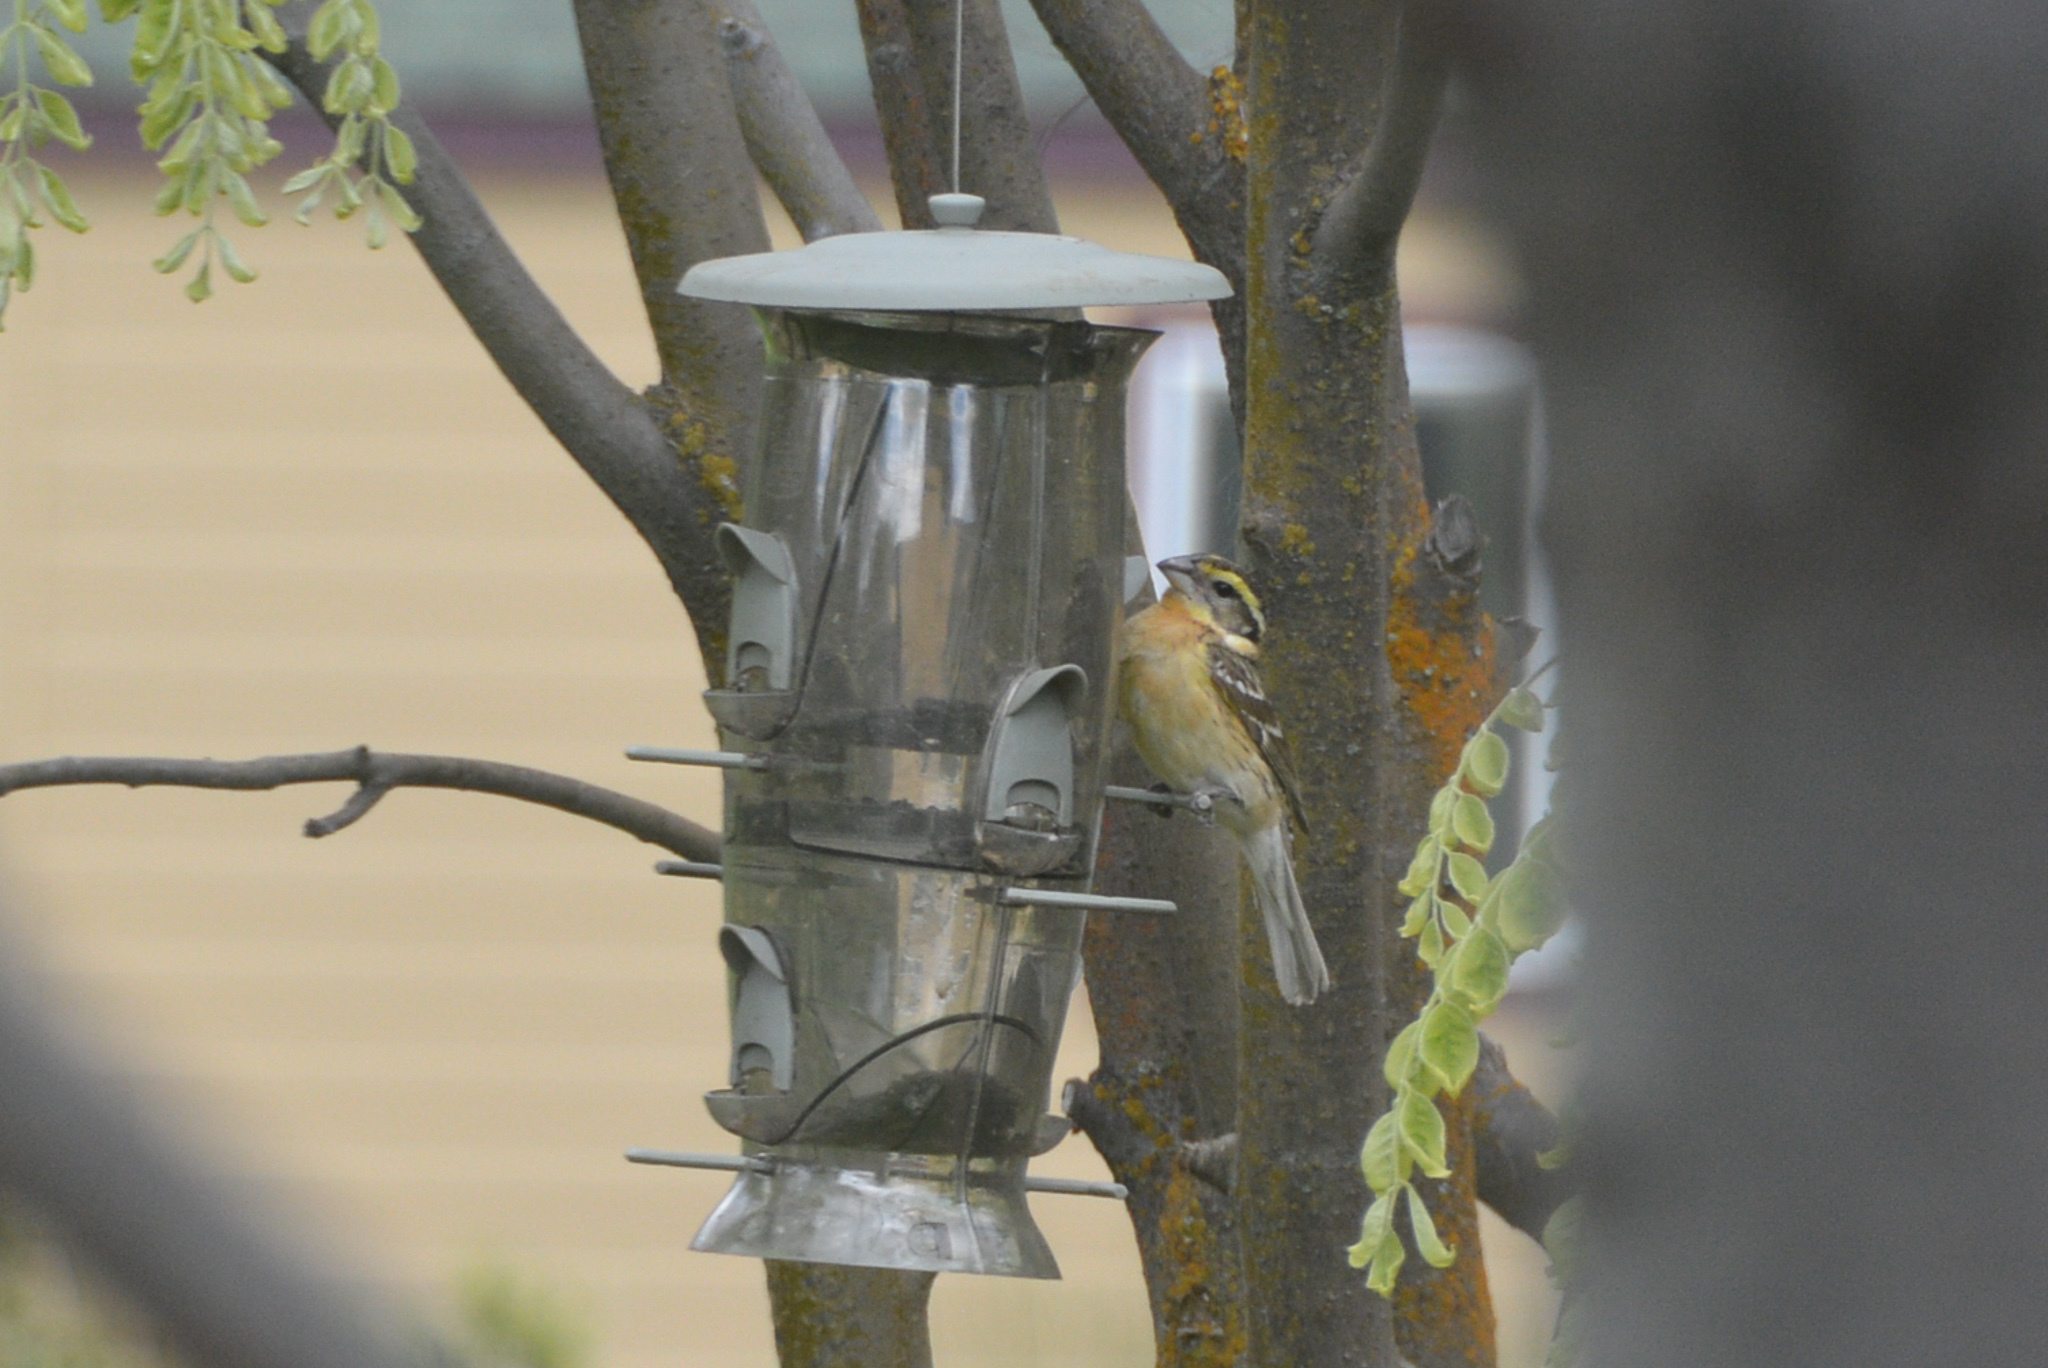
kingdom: Animalia
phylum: Chordata
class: Aves
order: Passeriformes
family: Cardinalidae
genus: Pheucticus
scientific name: Pheucticus melanocephalus
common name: Black-headed grosbeak
